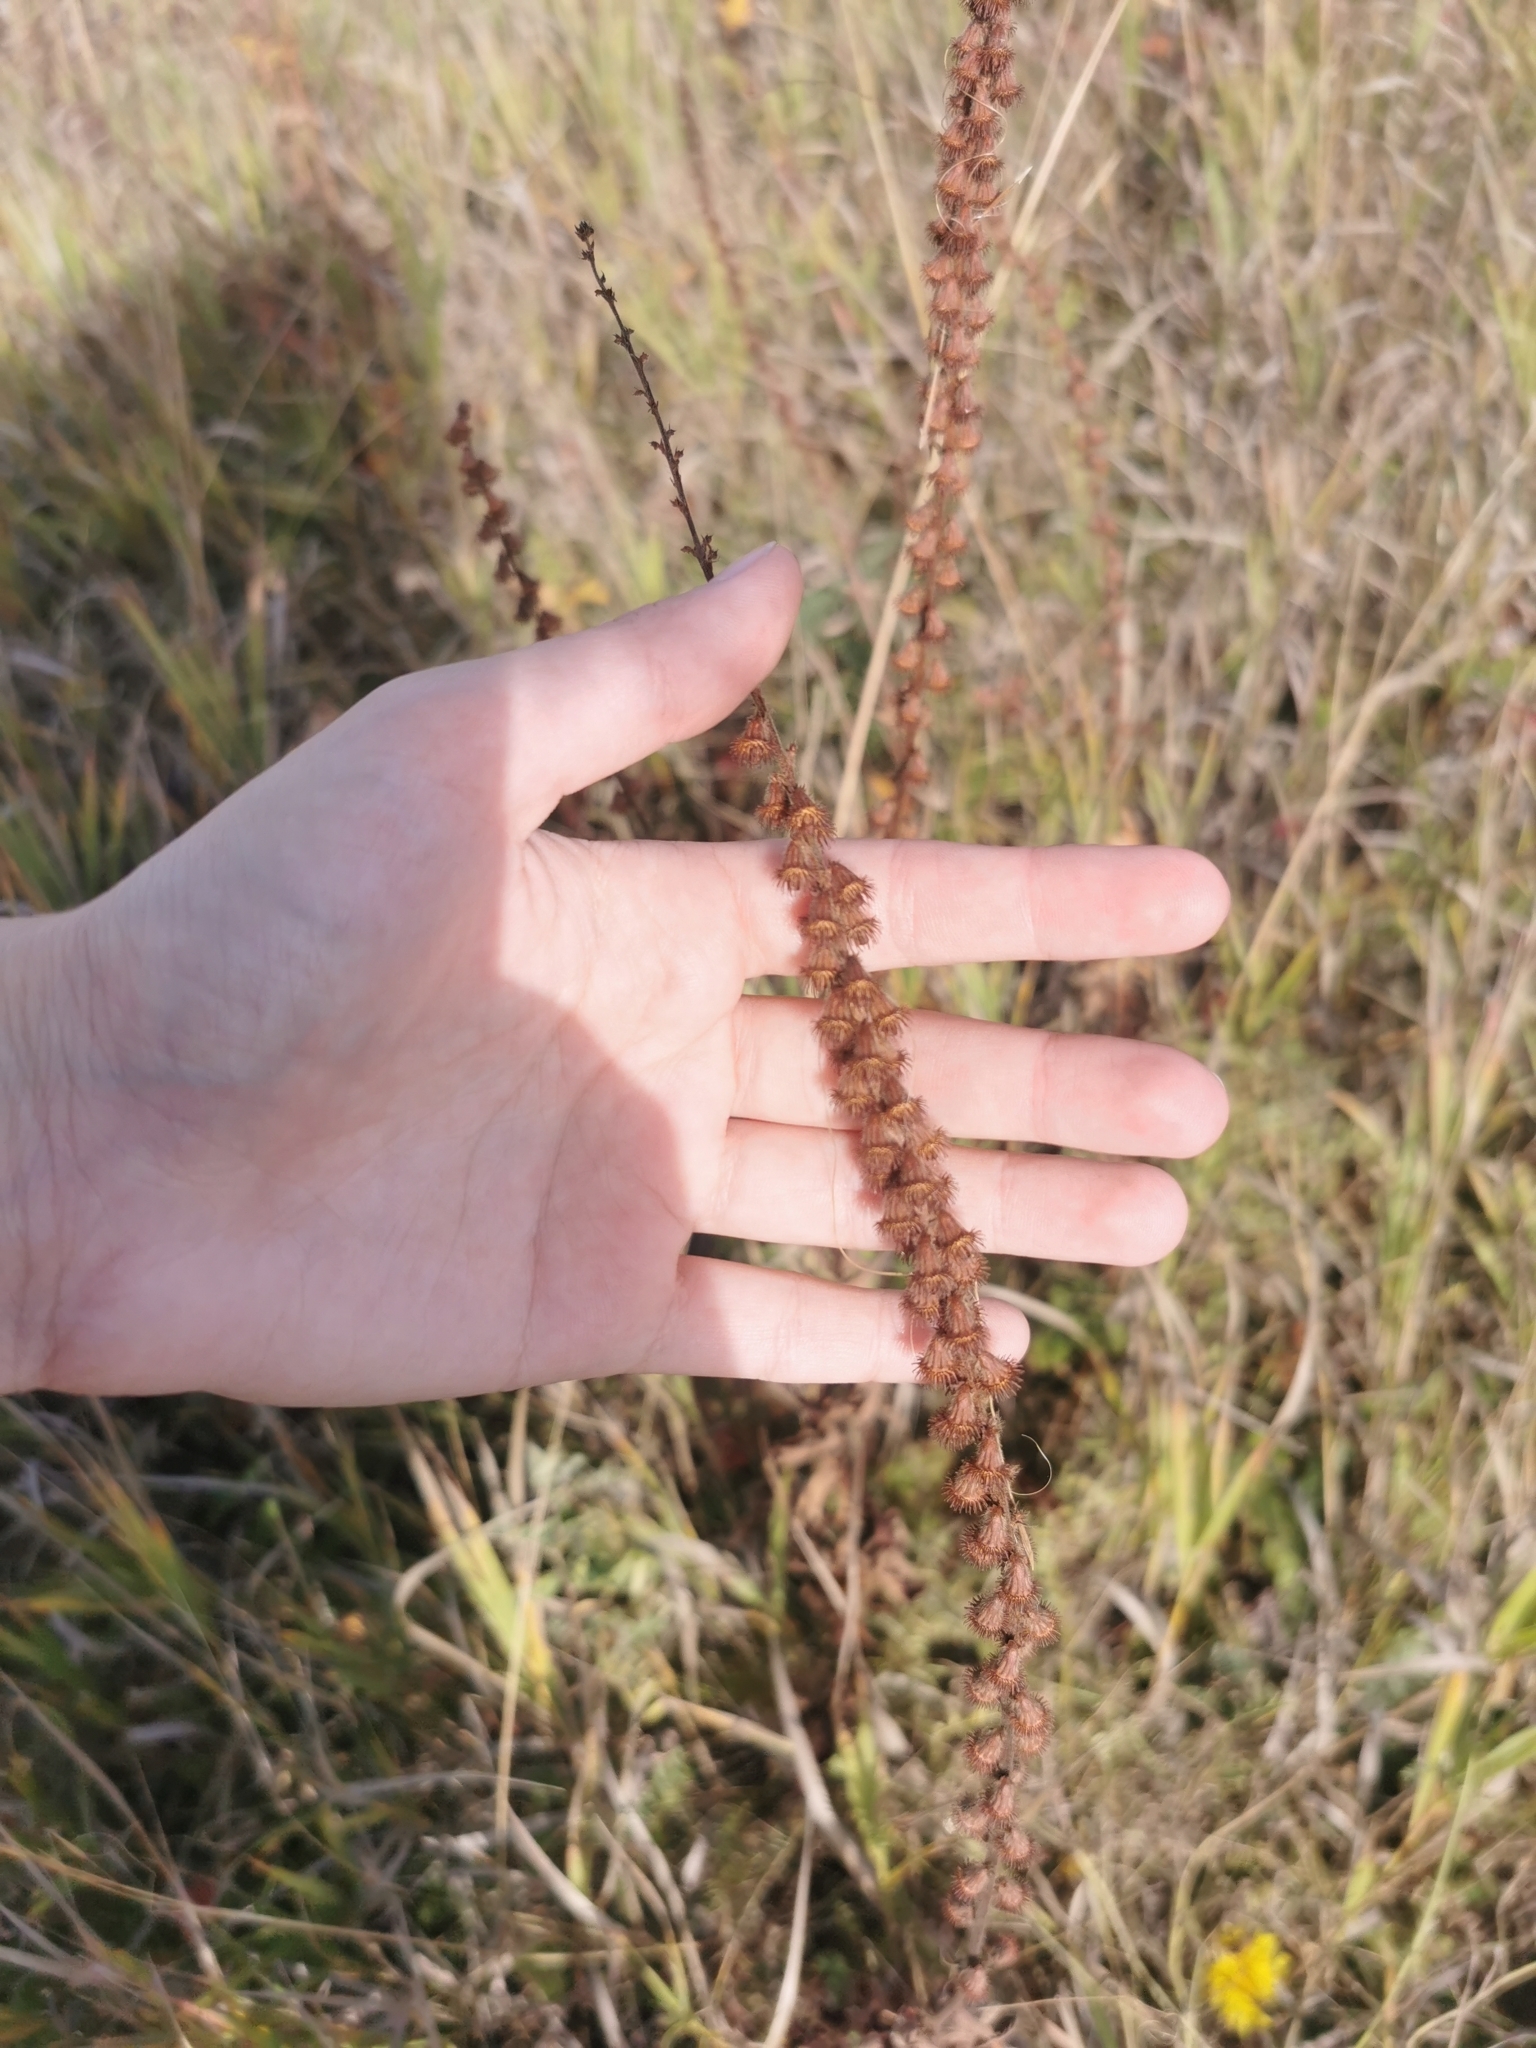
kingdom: Plantae
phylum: Tracheophyta
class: Magnoliopsida
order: Rosales
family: Rosaceae
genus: Agrimonia
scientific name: Agrimonia eupatoria
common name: Agrimony
